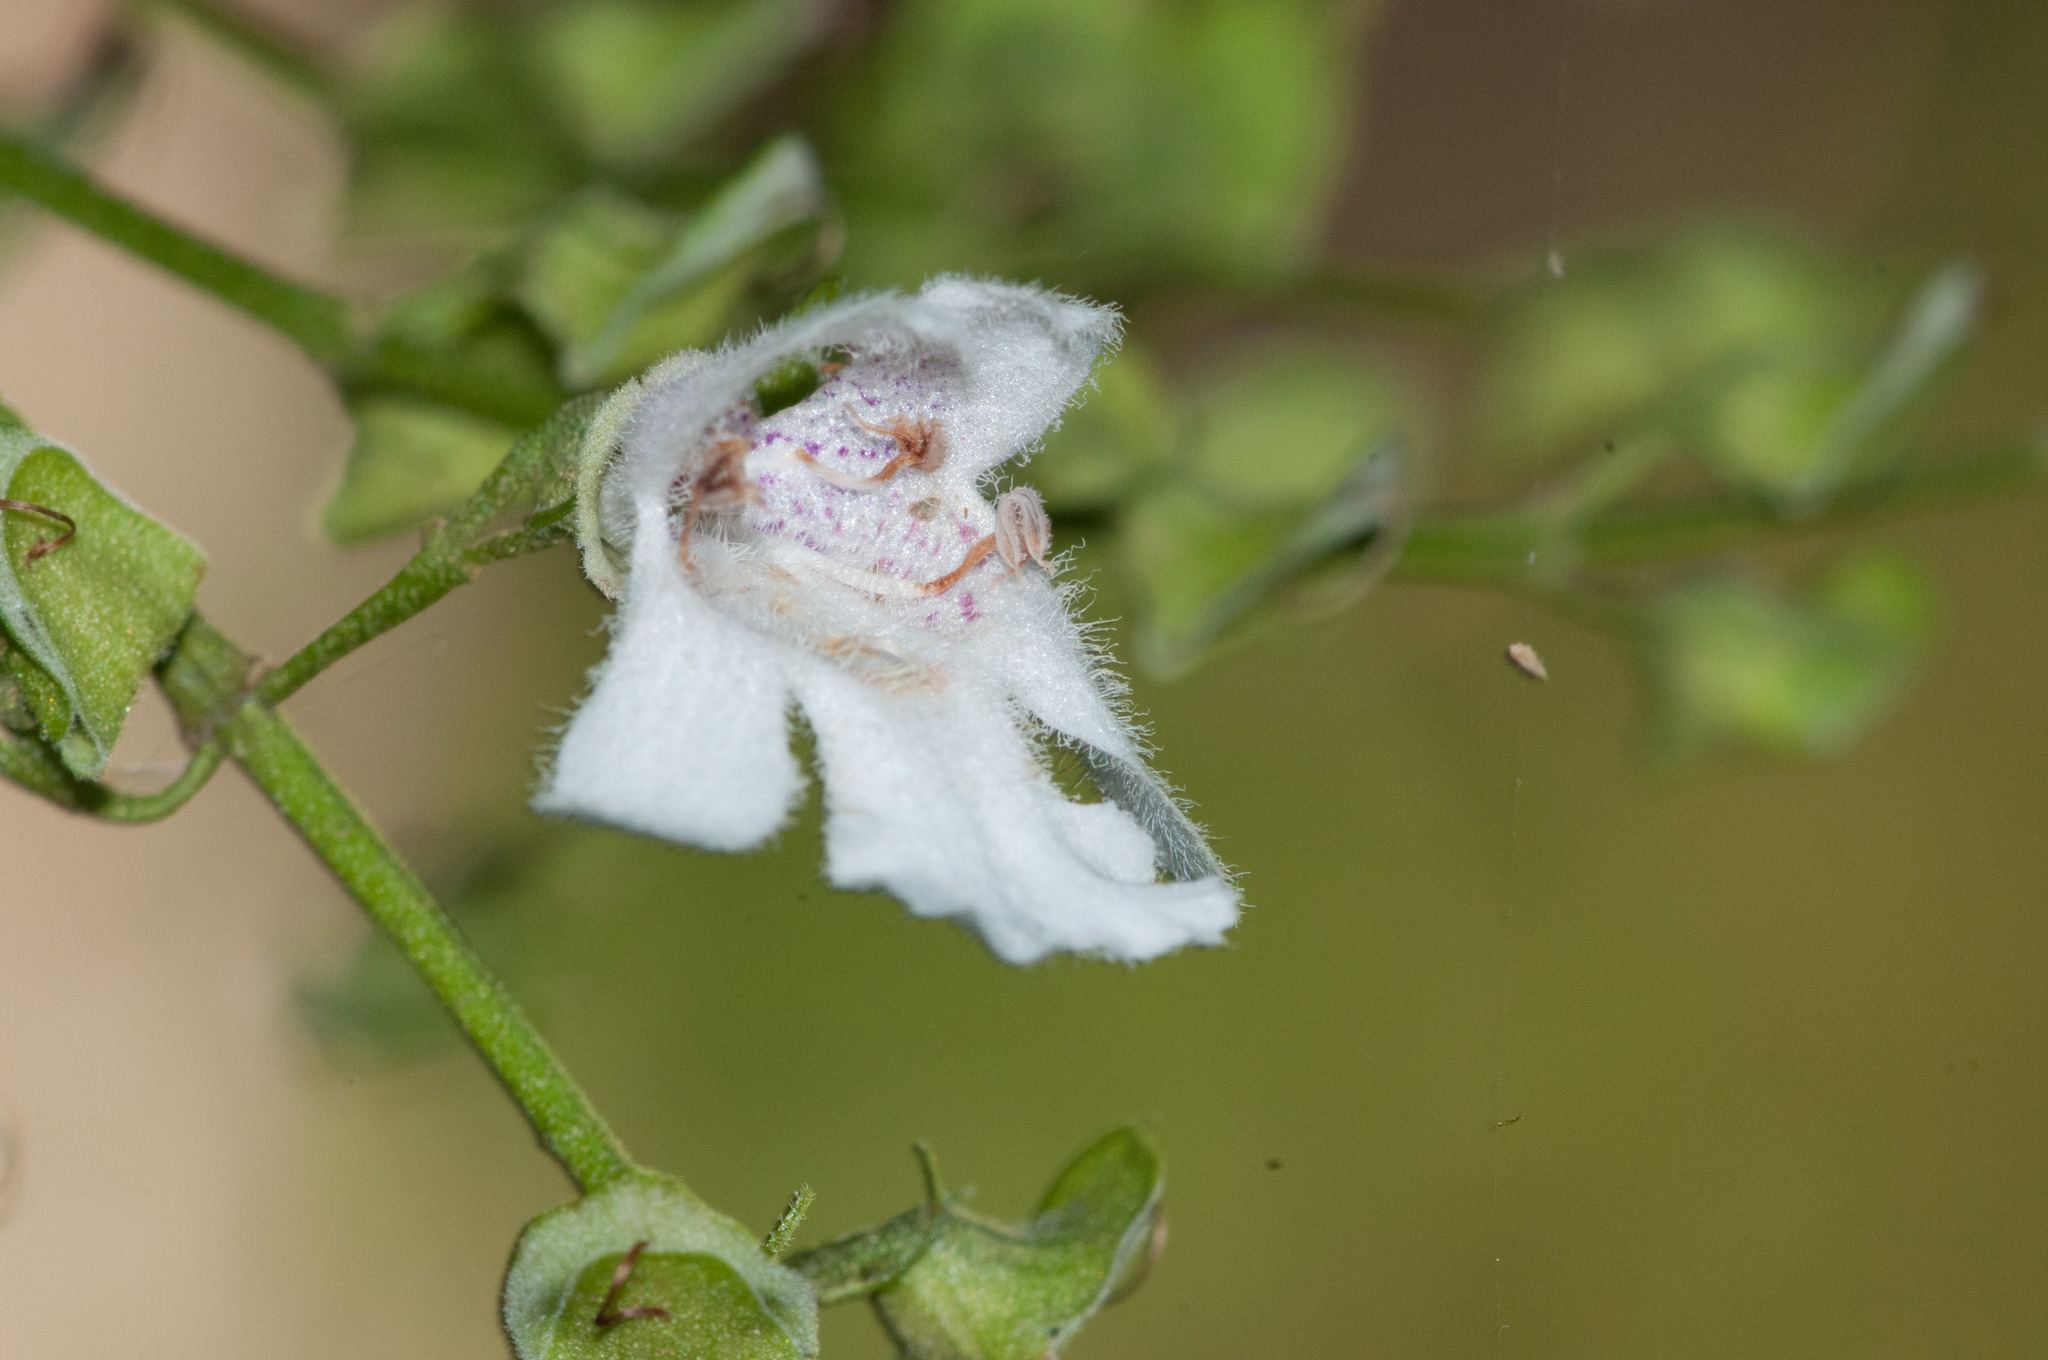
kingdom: Plantae
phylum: Tracheophyta
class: Magnoliopsida
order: Lamiales
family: Lamiaceae
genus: Prostanthera
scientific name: Prostanthera lasianthos
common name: Mountain-lilac
